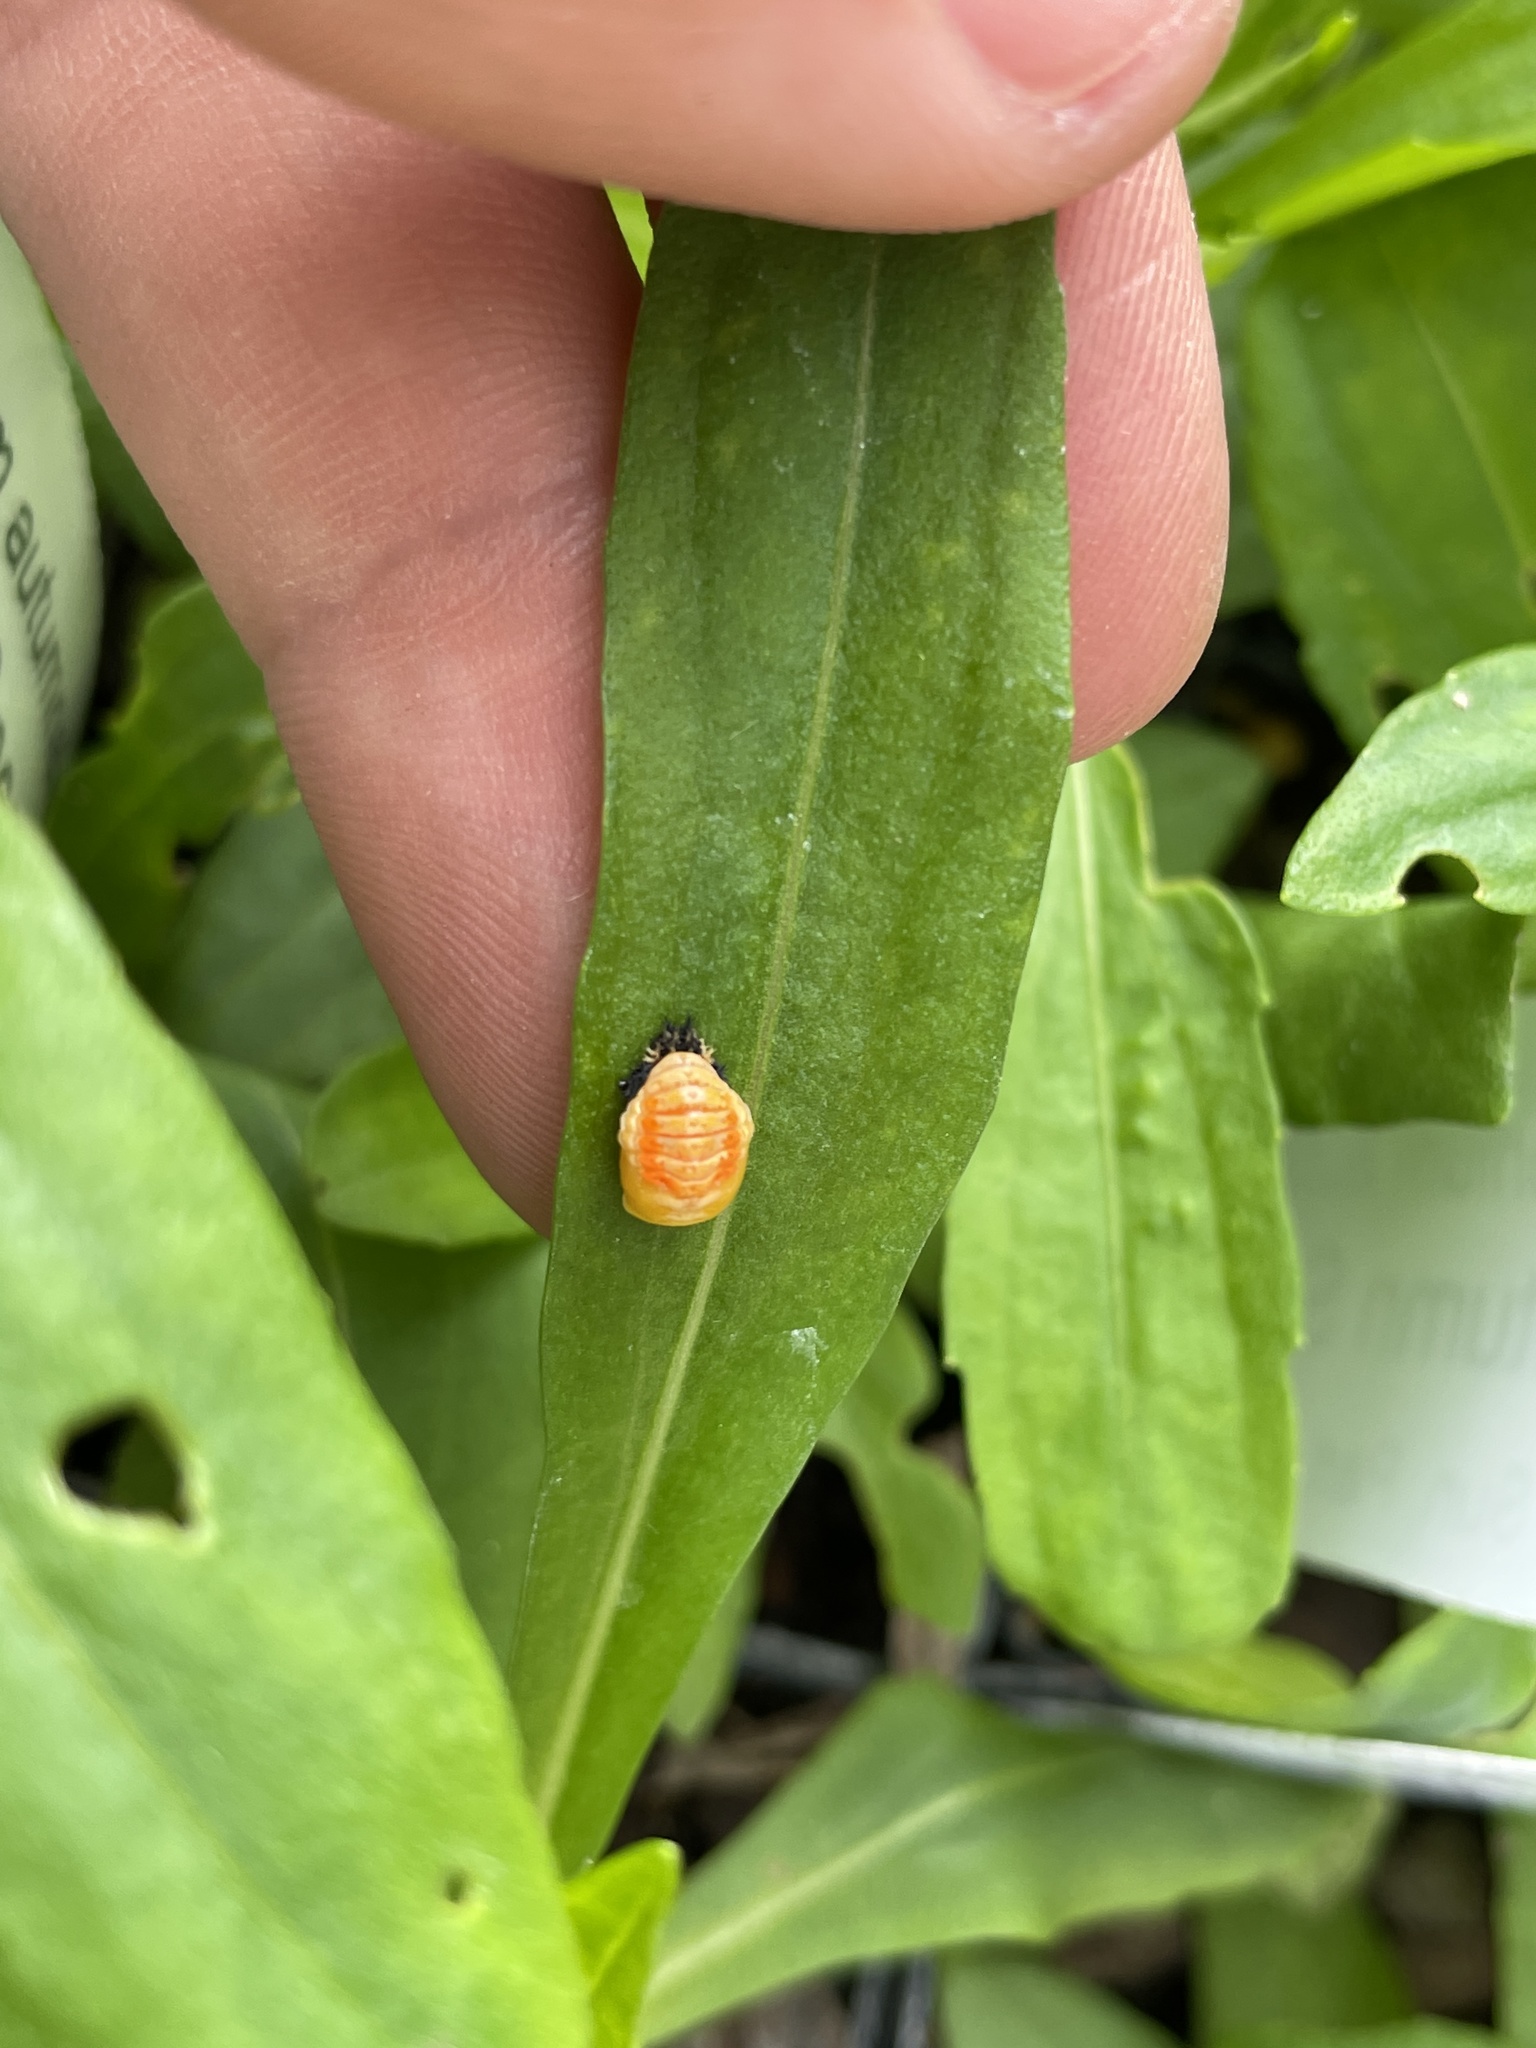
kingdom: Animalia
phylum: Arthropoda
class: Insecta
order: Coleoptera
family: Coccinellidae
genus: Harmonia
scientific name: Harmonia axyridis
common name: Harlequin ladybird
